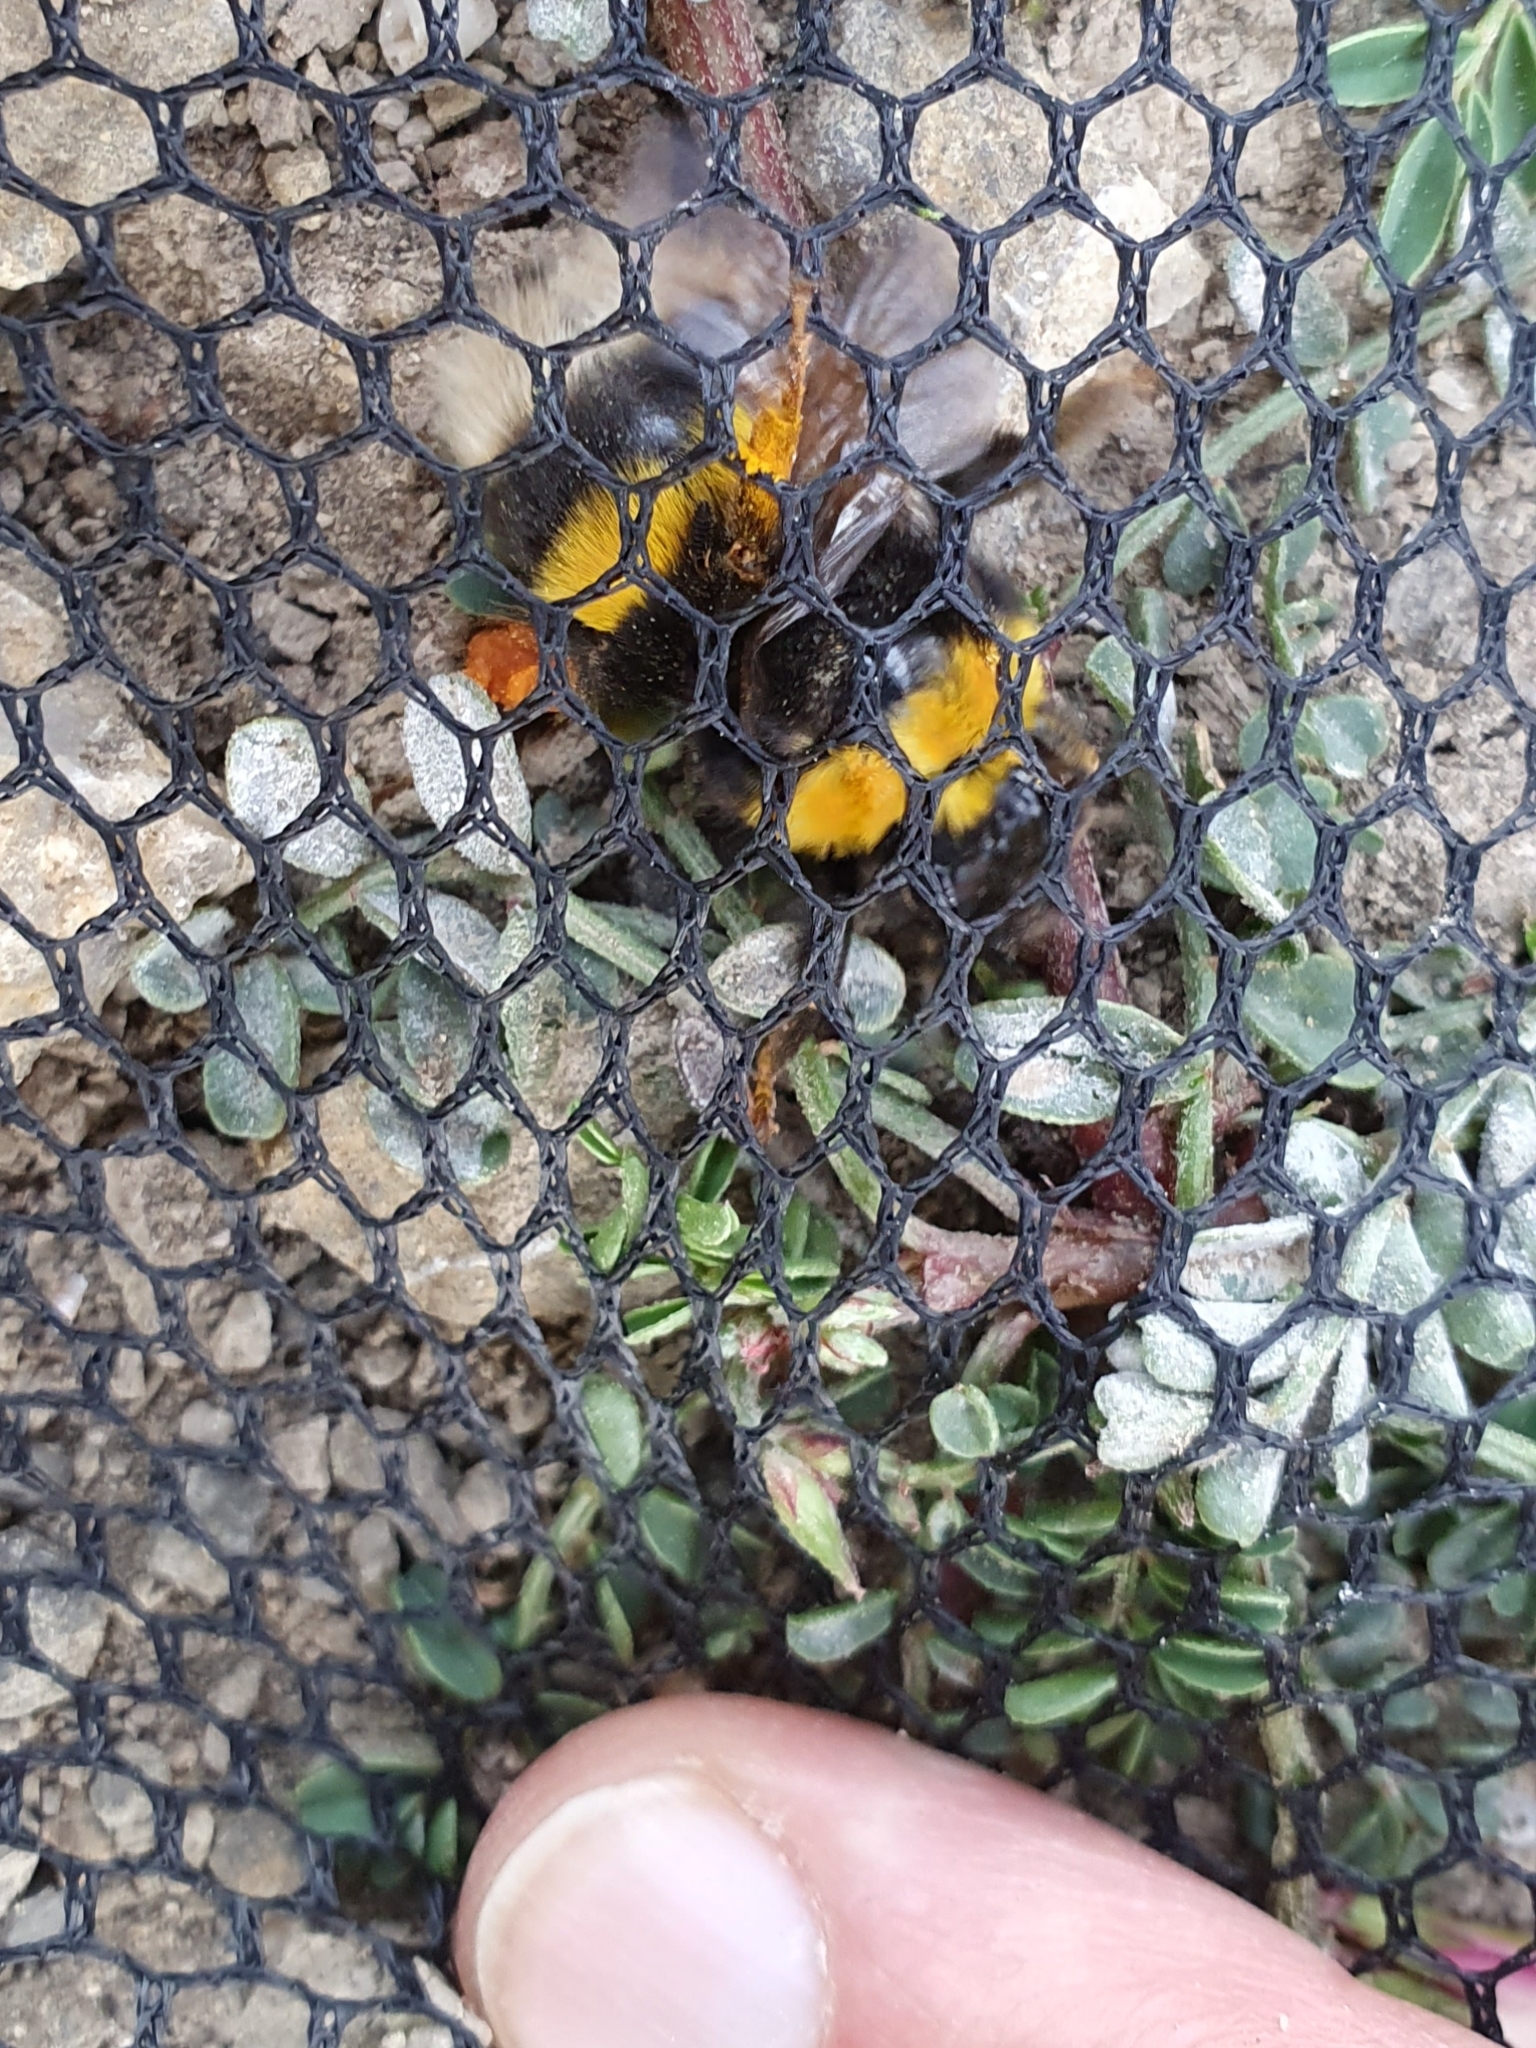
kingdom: Animalia
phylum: Arthropoda
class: Insecta
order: Hymenoptera
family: Apidae
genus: Bombus
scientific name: Bombus terrestris
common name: Buff-tailed bumblebee
